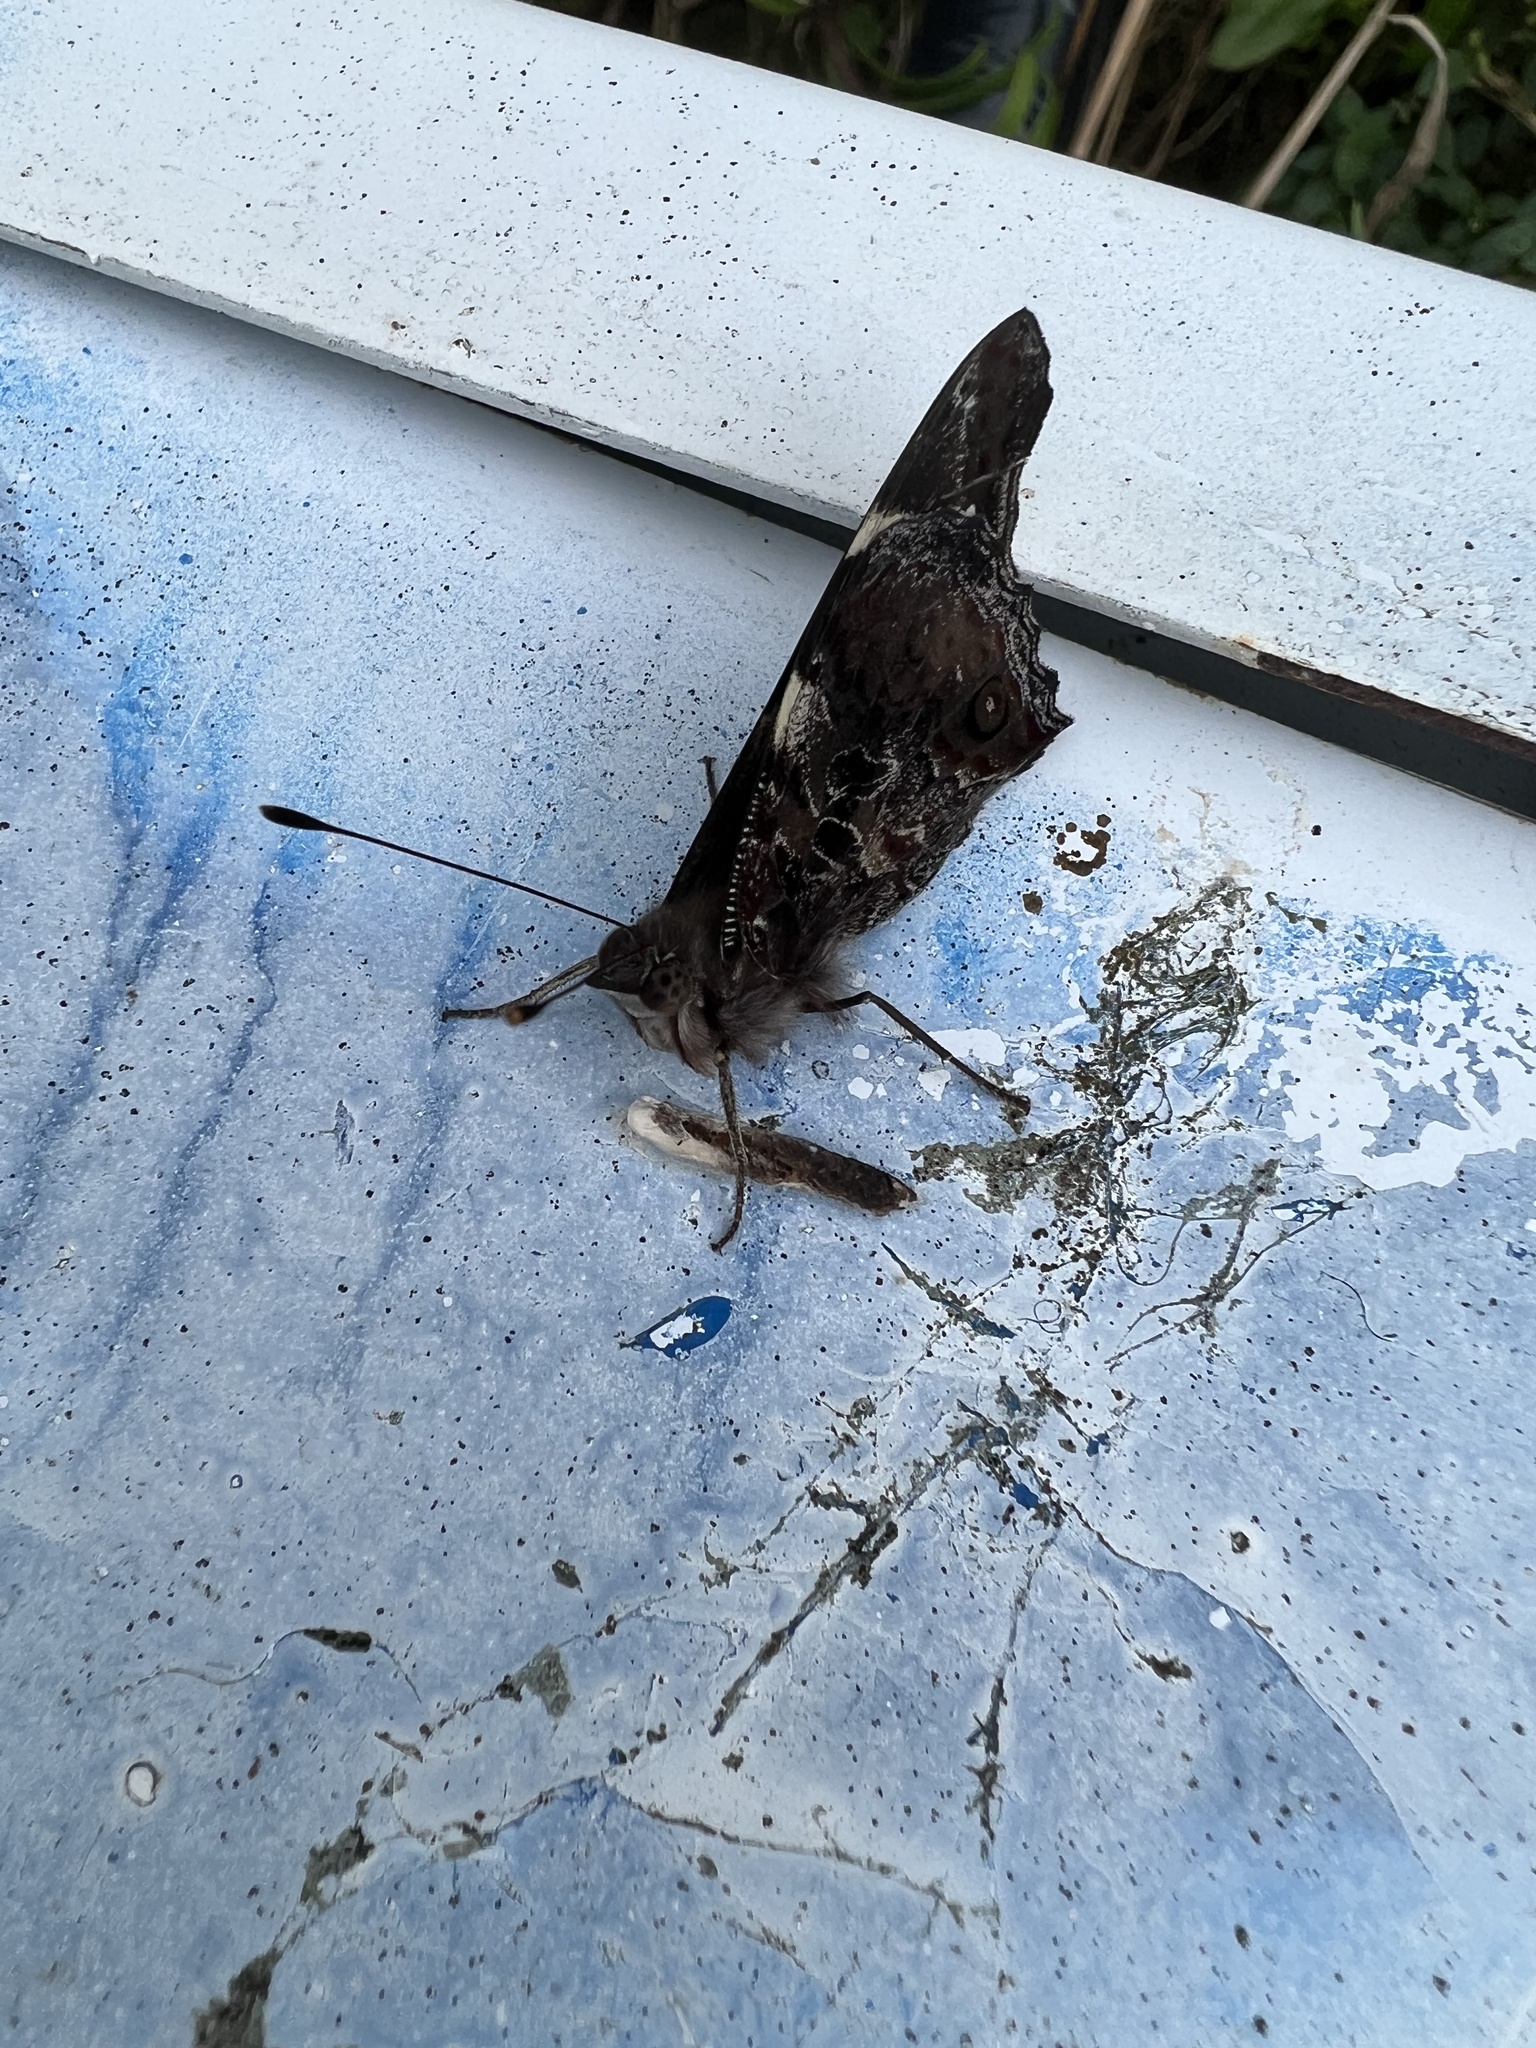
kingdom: Animalia
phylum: Arthropoda
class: Insecta
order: Lepidoptera
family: Nymphalidae
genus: Vanessa
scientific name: Vanessa itea
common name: Yellow admiral
